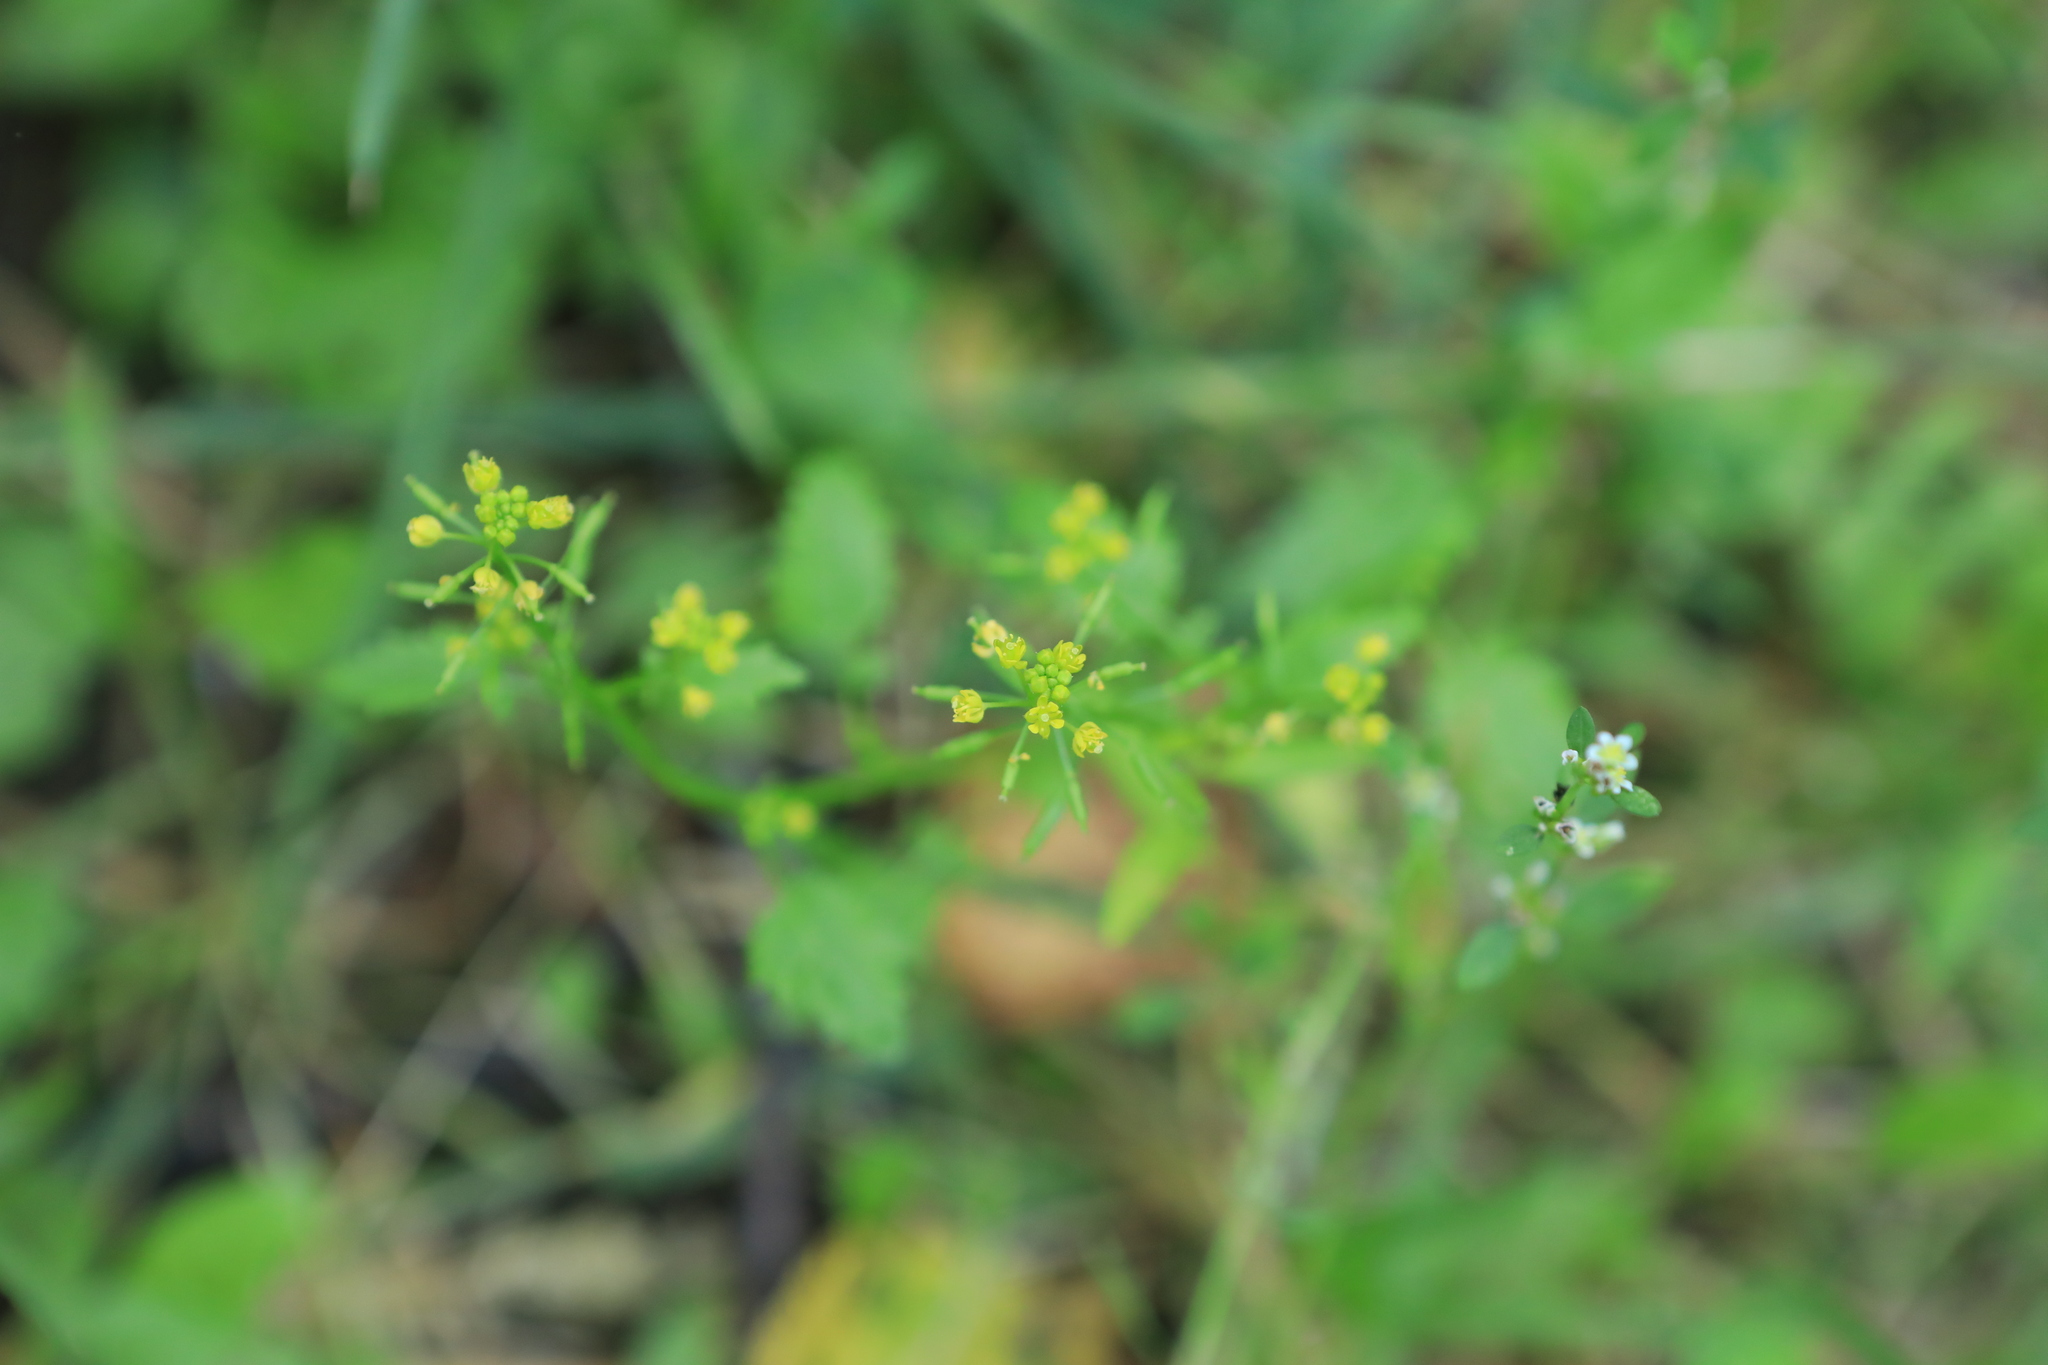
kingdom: Plantae
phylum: Tracheophyta
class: Magnoliopsida
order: Brassicales
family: Brassicaceae
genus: Rorippa
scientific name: Rorippa palustris
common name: Marsh yellow-cress
